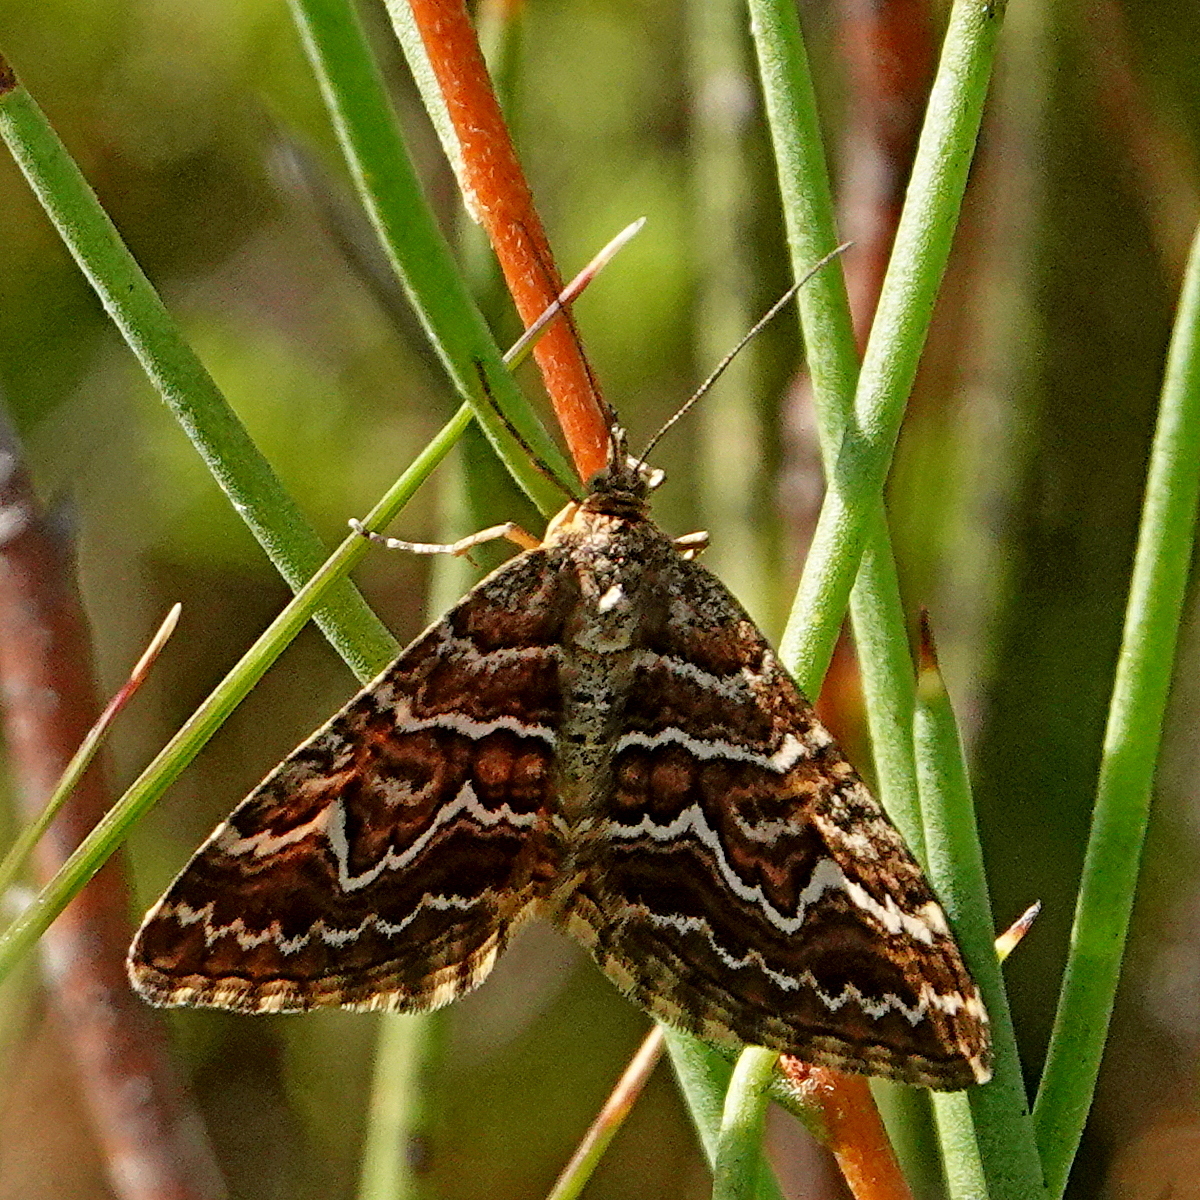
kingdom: Animalia
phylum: Arthropoda
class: Insecta
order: Lepidoptera
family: Geometridae
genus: Chrysolarentia
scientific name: Chrysolarentia heliacaria
